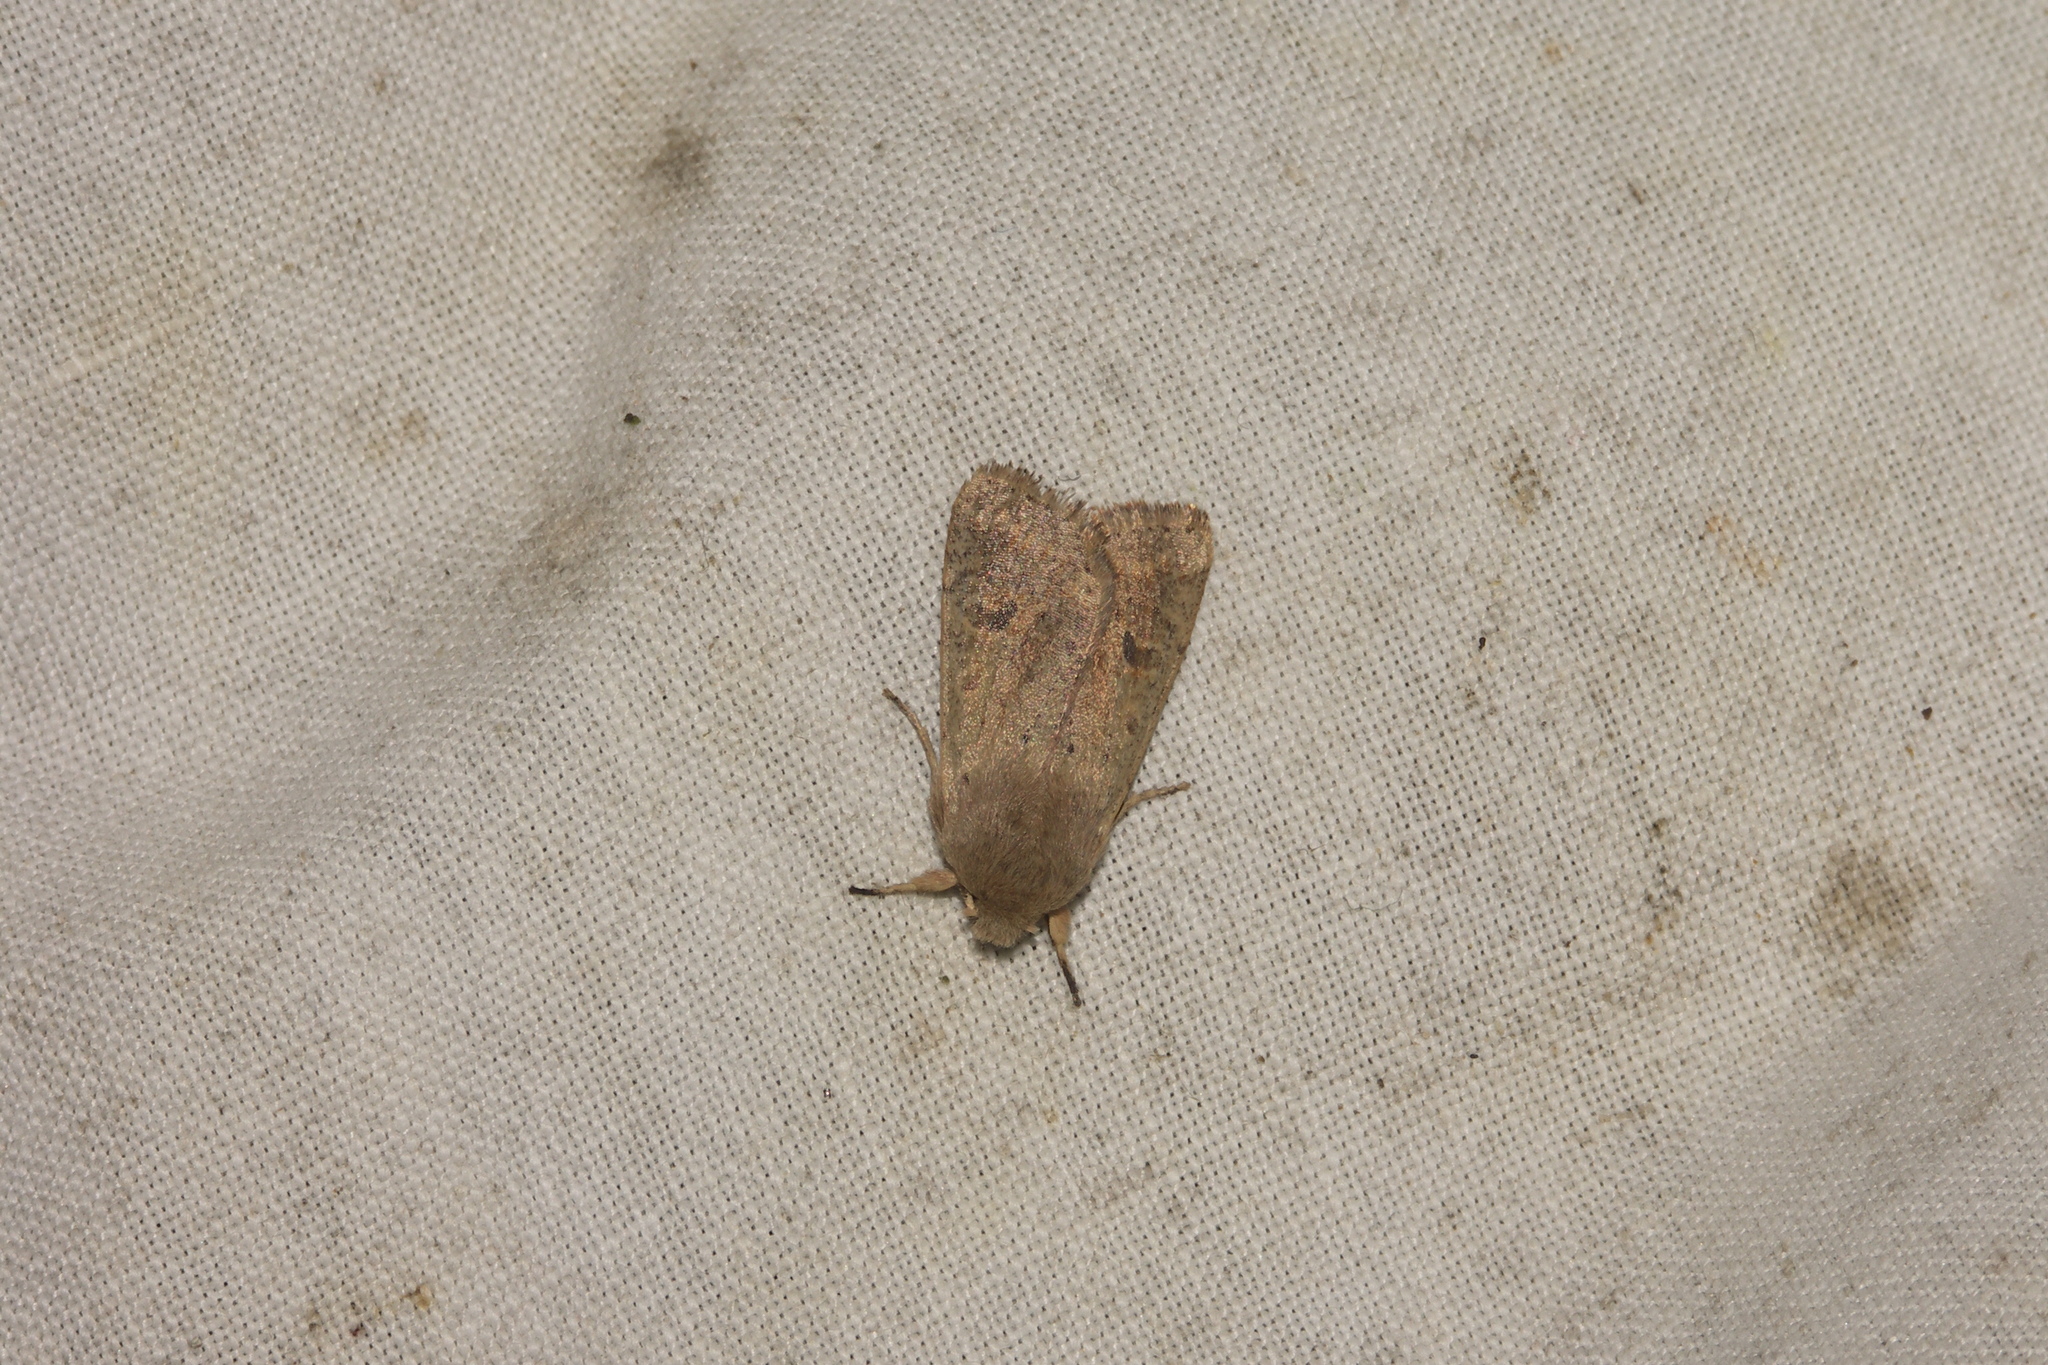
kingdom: Animalia
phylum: Arthropoda
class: Insecta
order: Lepidoptera
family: Noctuidae
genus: Orthosia
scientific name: Orthosia cruda
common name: Small quaker
